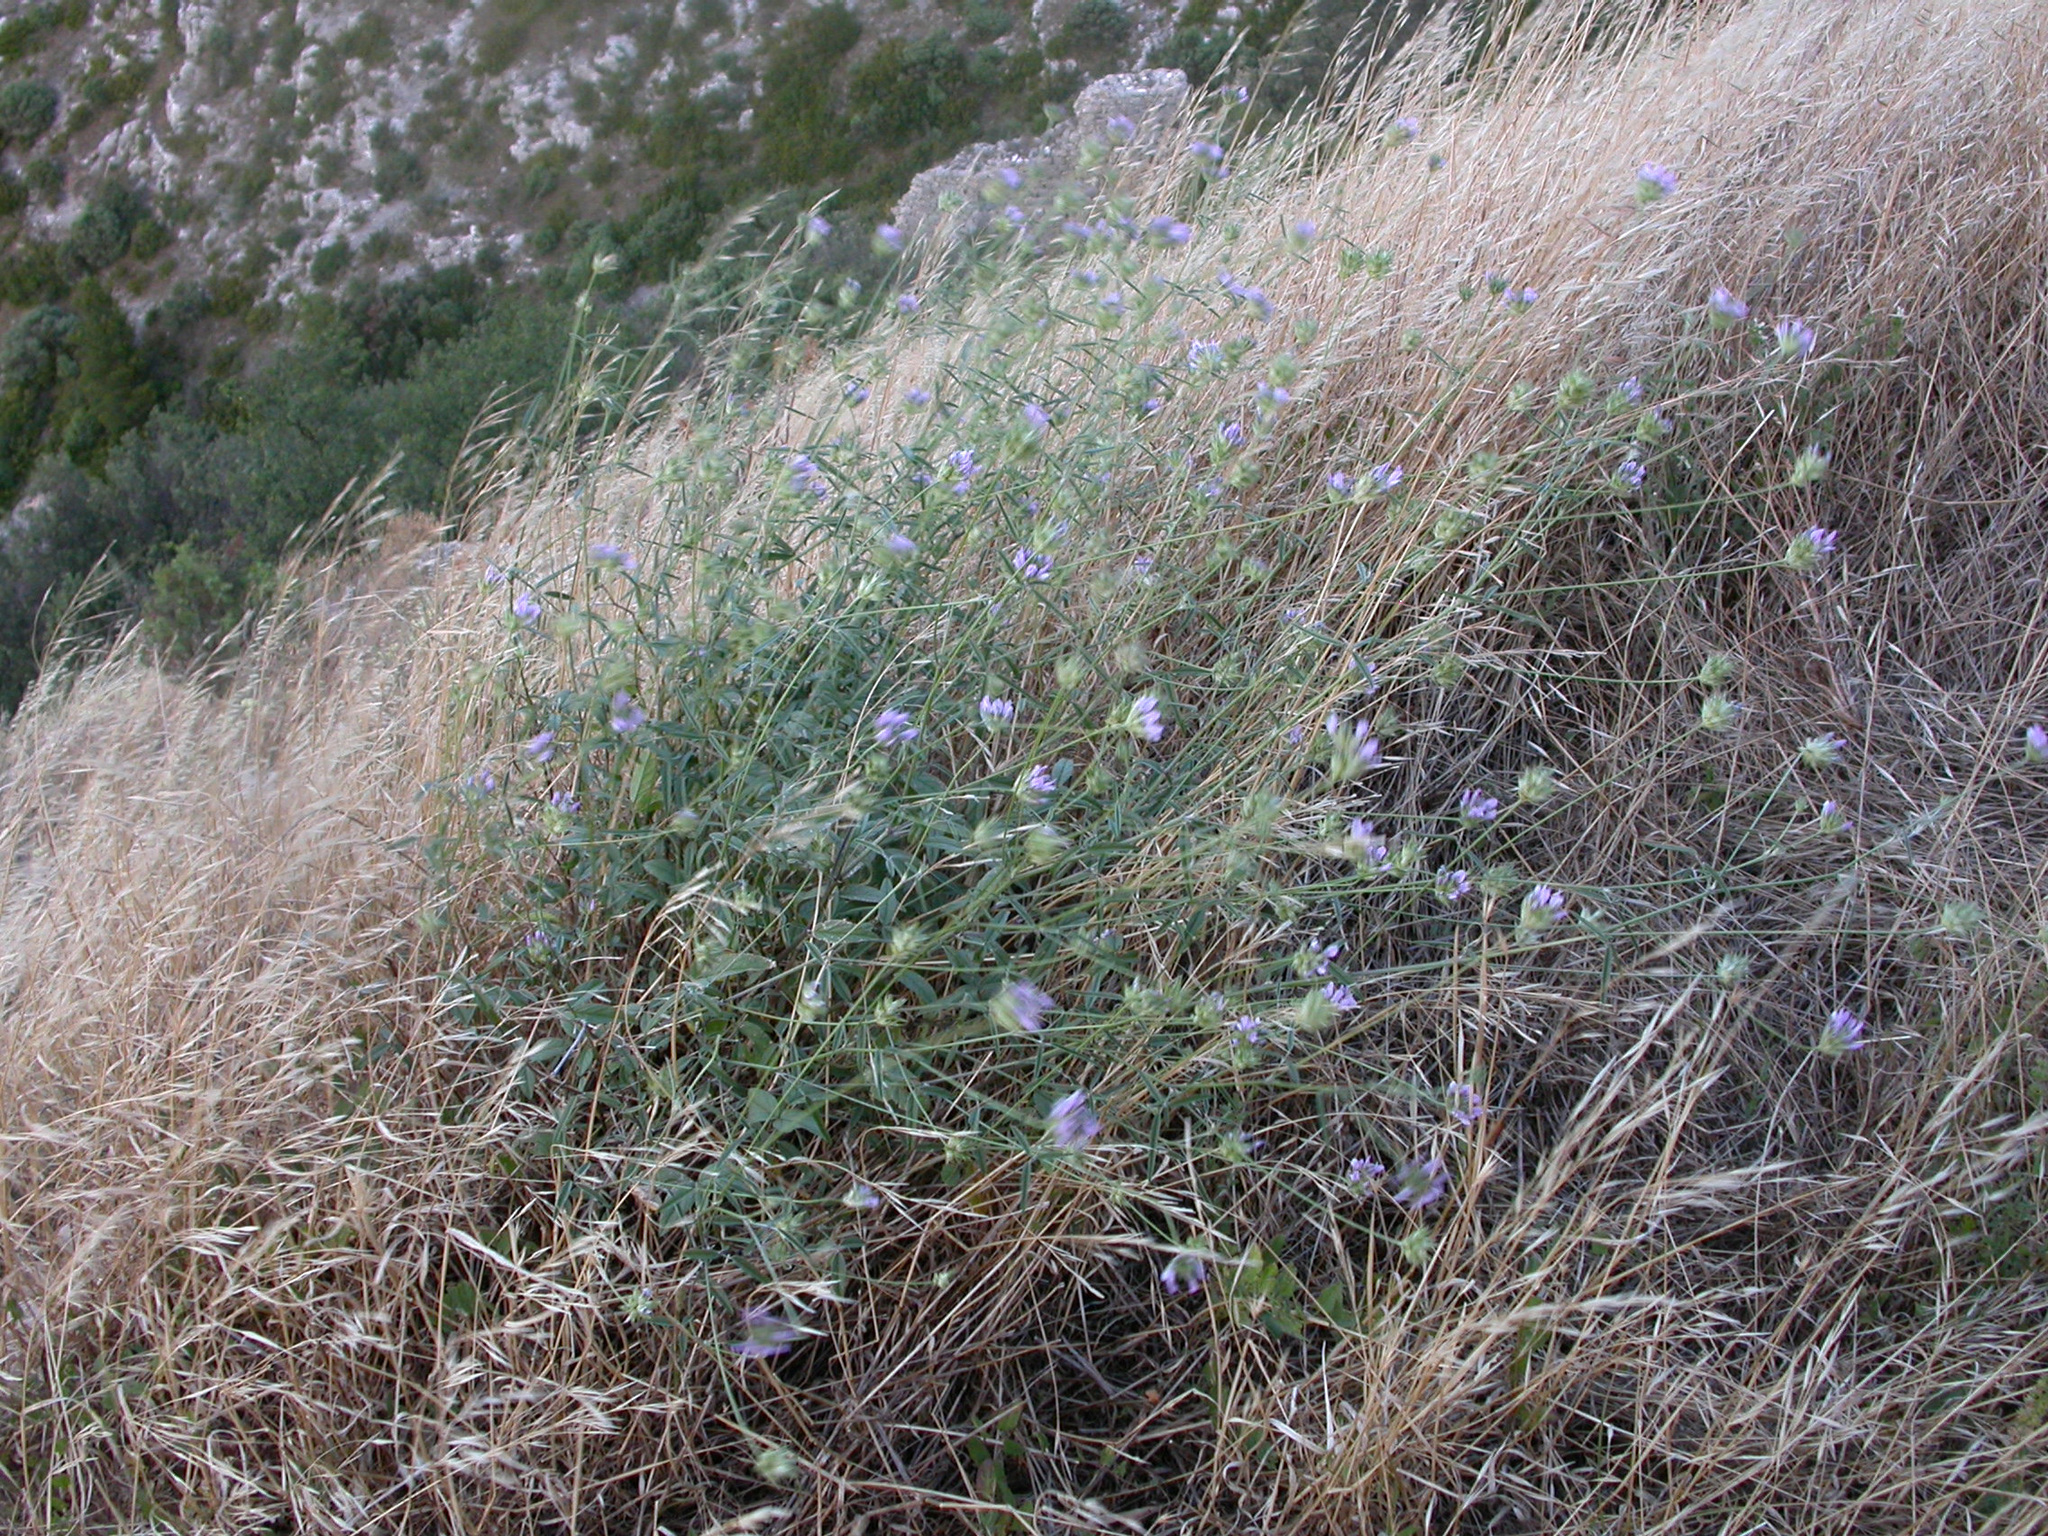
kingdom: Plantae
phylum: Tracheophyta
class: Magnoliopsida
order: Fabales
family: Fabaceae
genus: Bituminaria
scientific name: Bituminaria bituminosa
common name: Arabian pea
